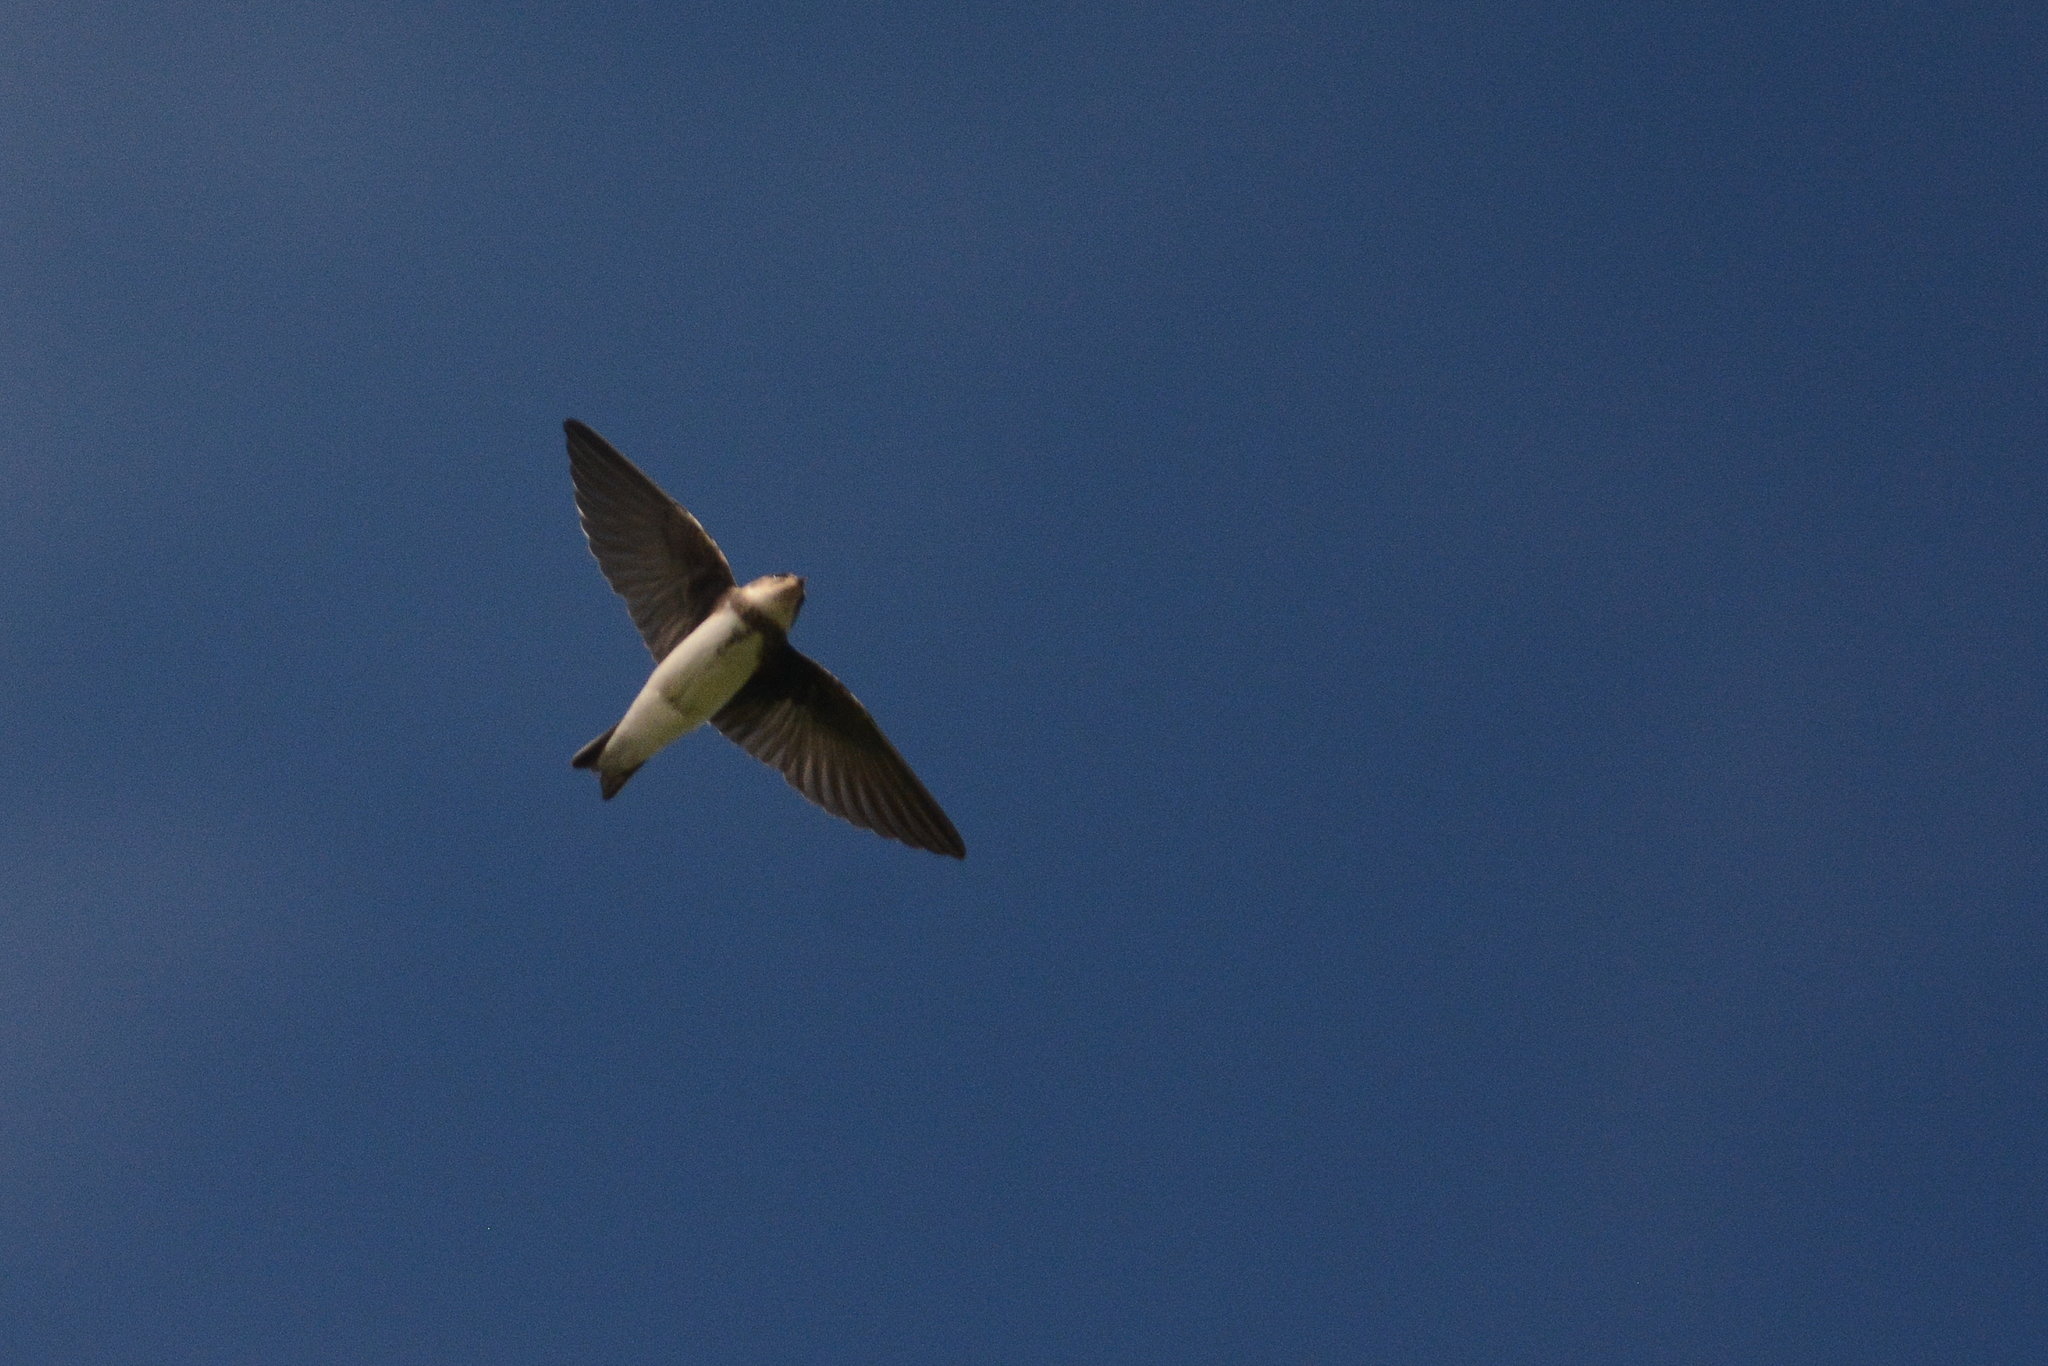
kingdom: Animalia
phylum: Chordata
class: Aves
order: Passeriformes
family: Hirundinidae
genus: Riparia
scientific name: Riparia riparia
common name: Sand martin
